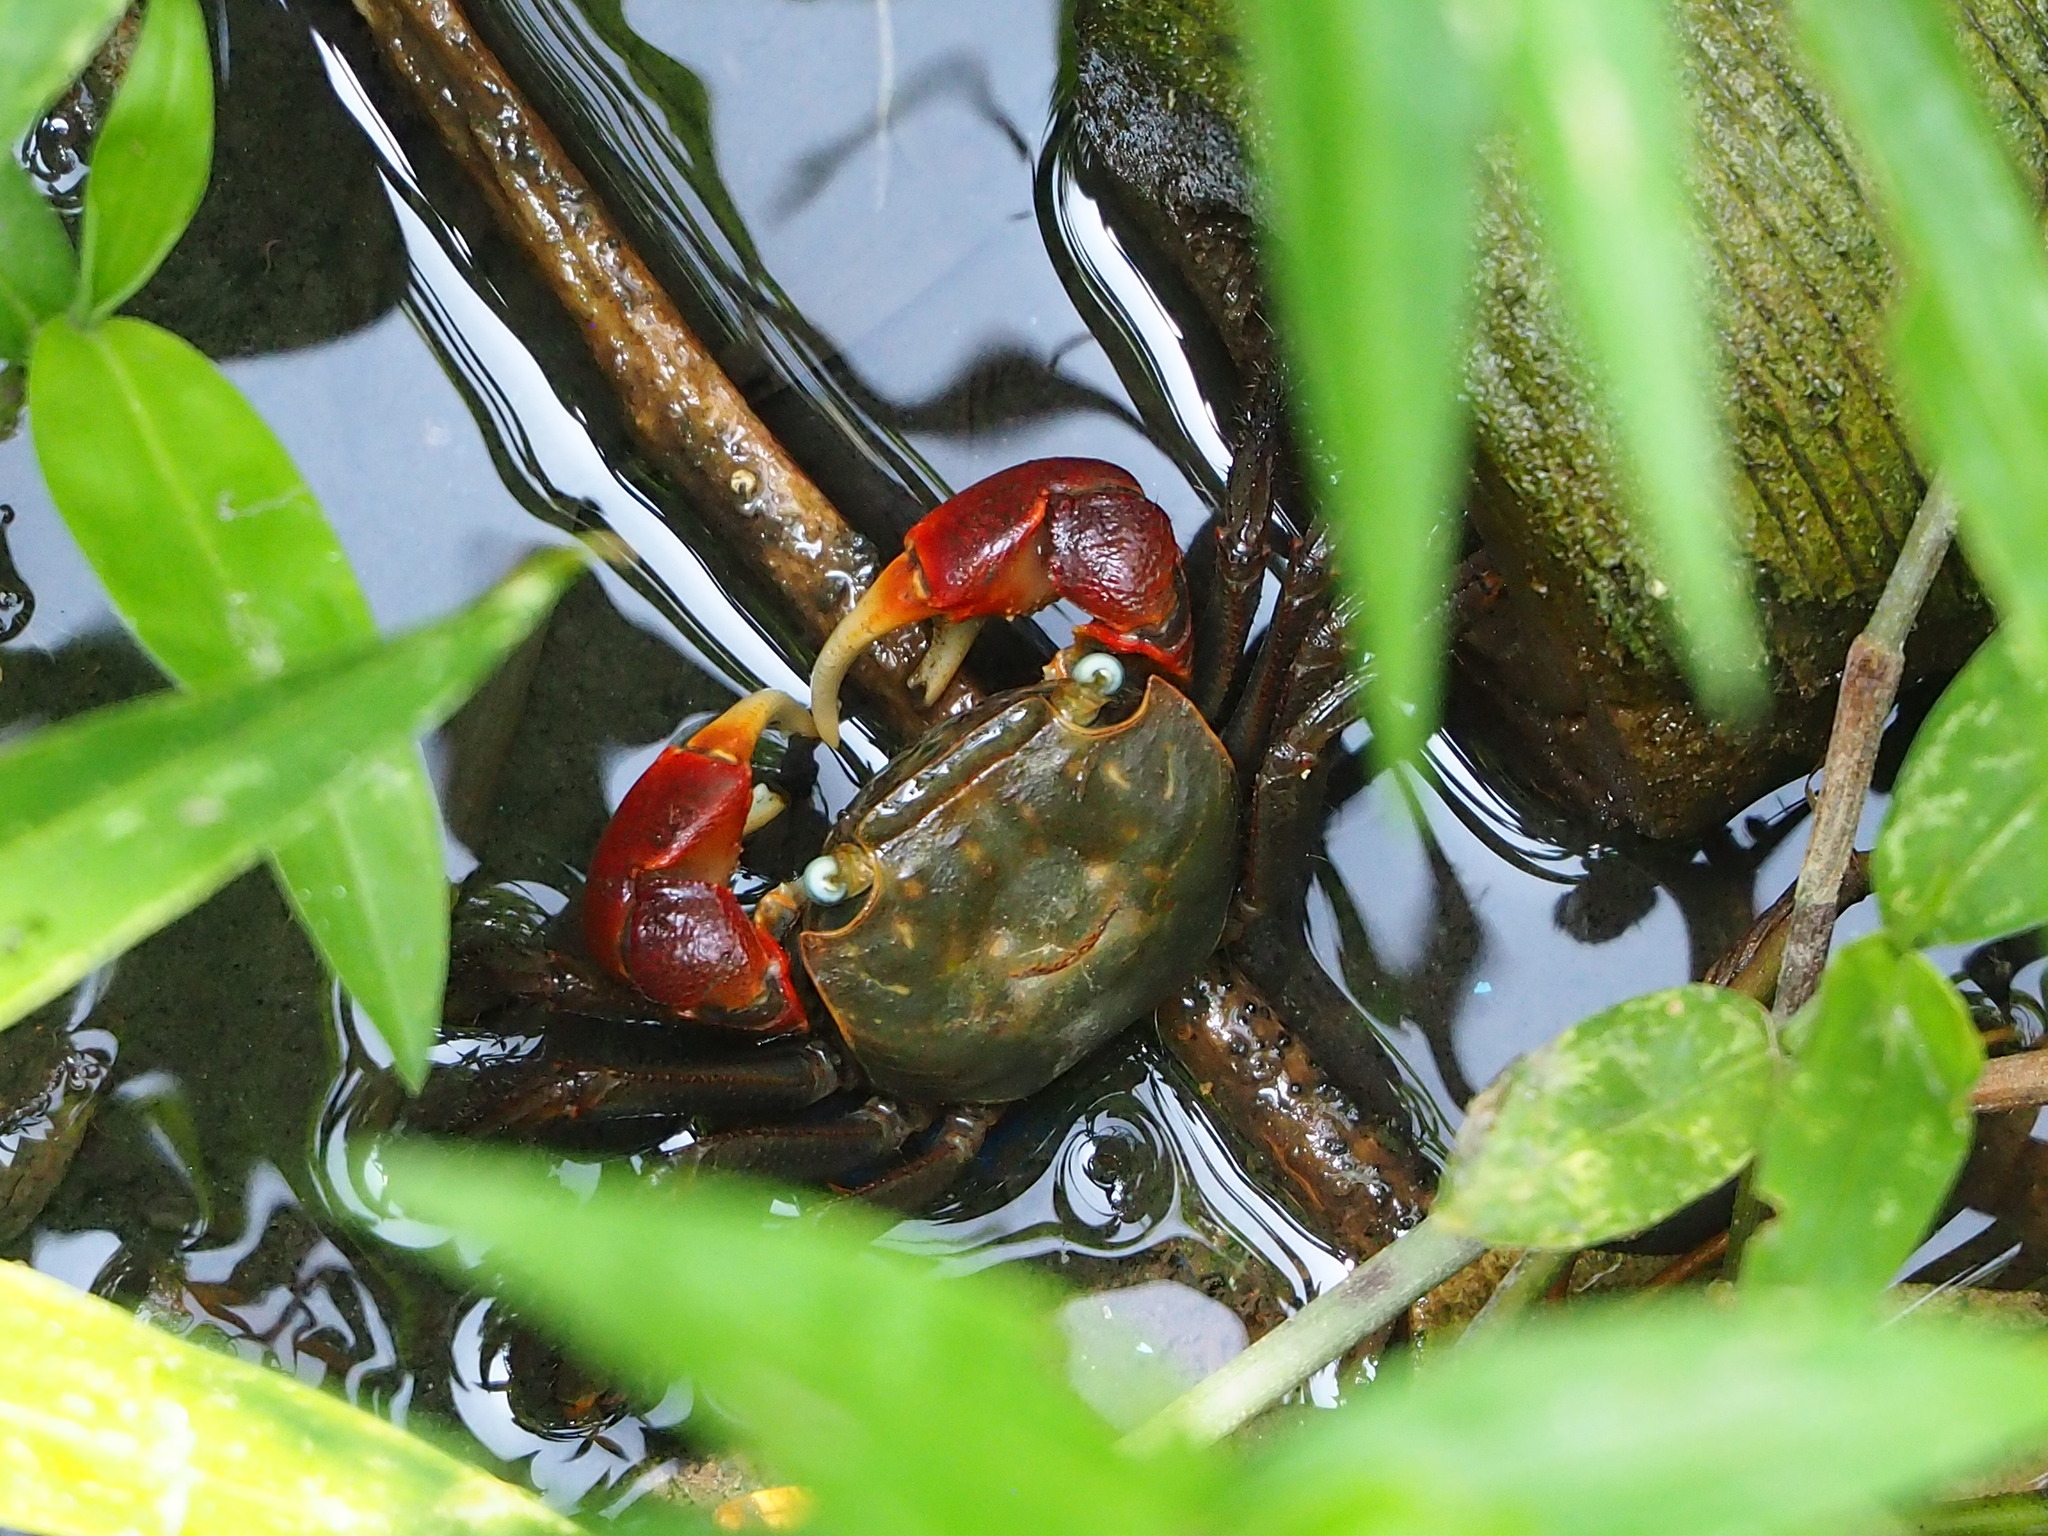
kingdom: Animalia
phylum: Arthropoda
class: Malacostraca
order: Decapoda
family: Sesarmidae
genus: Chiromantes
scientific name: Chiromantes haematocheir
